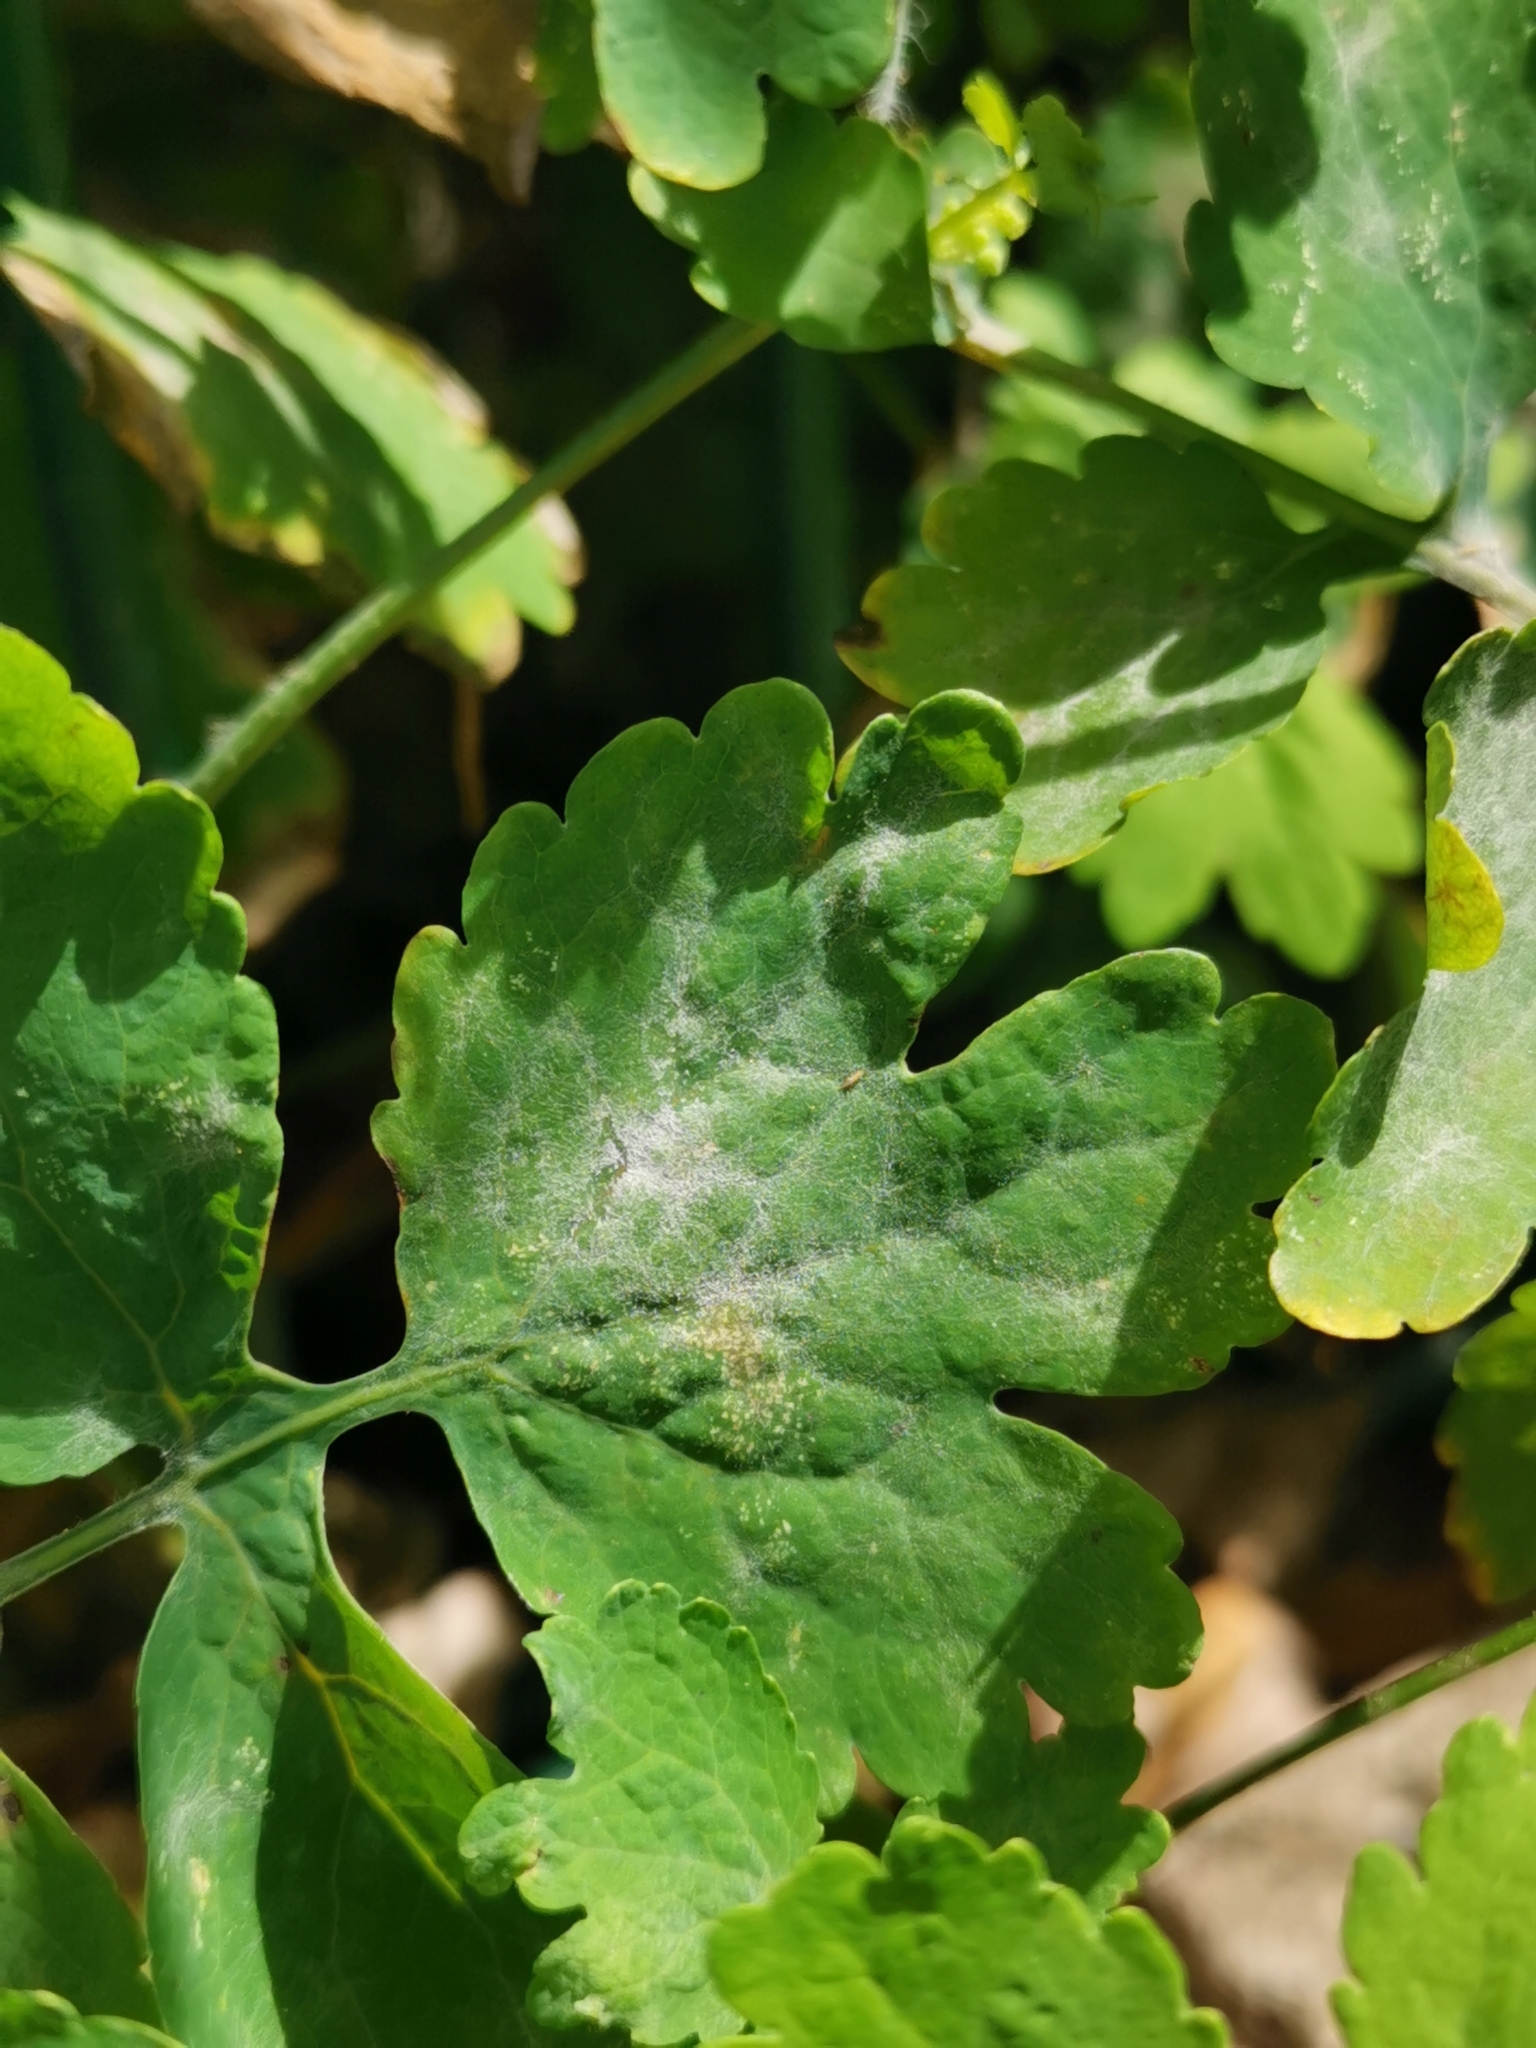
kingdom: Fungi
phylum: Ascomycota
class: Leotiomycetes
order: Helotiales
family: Erysiphaceae
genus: Erysiphe
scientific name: Erysiphe macleayae
